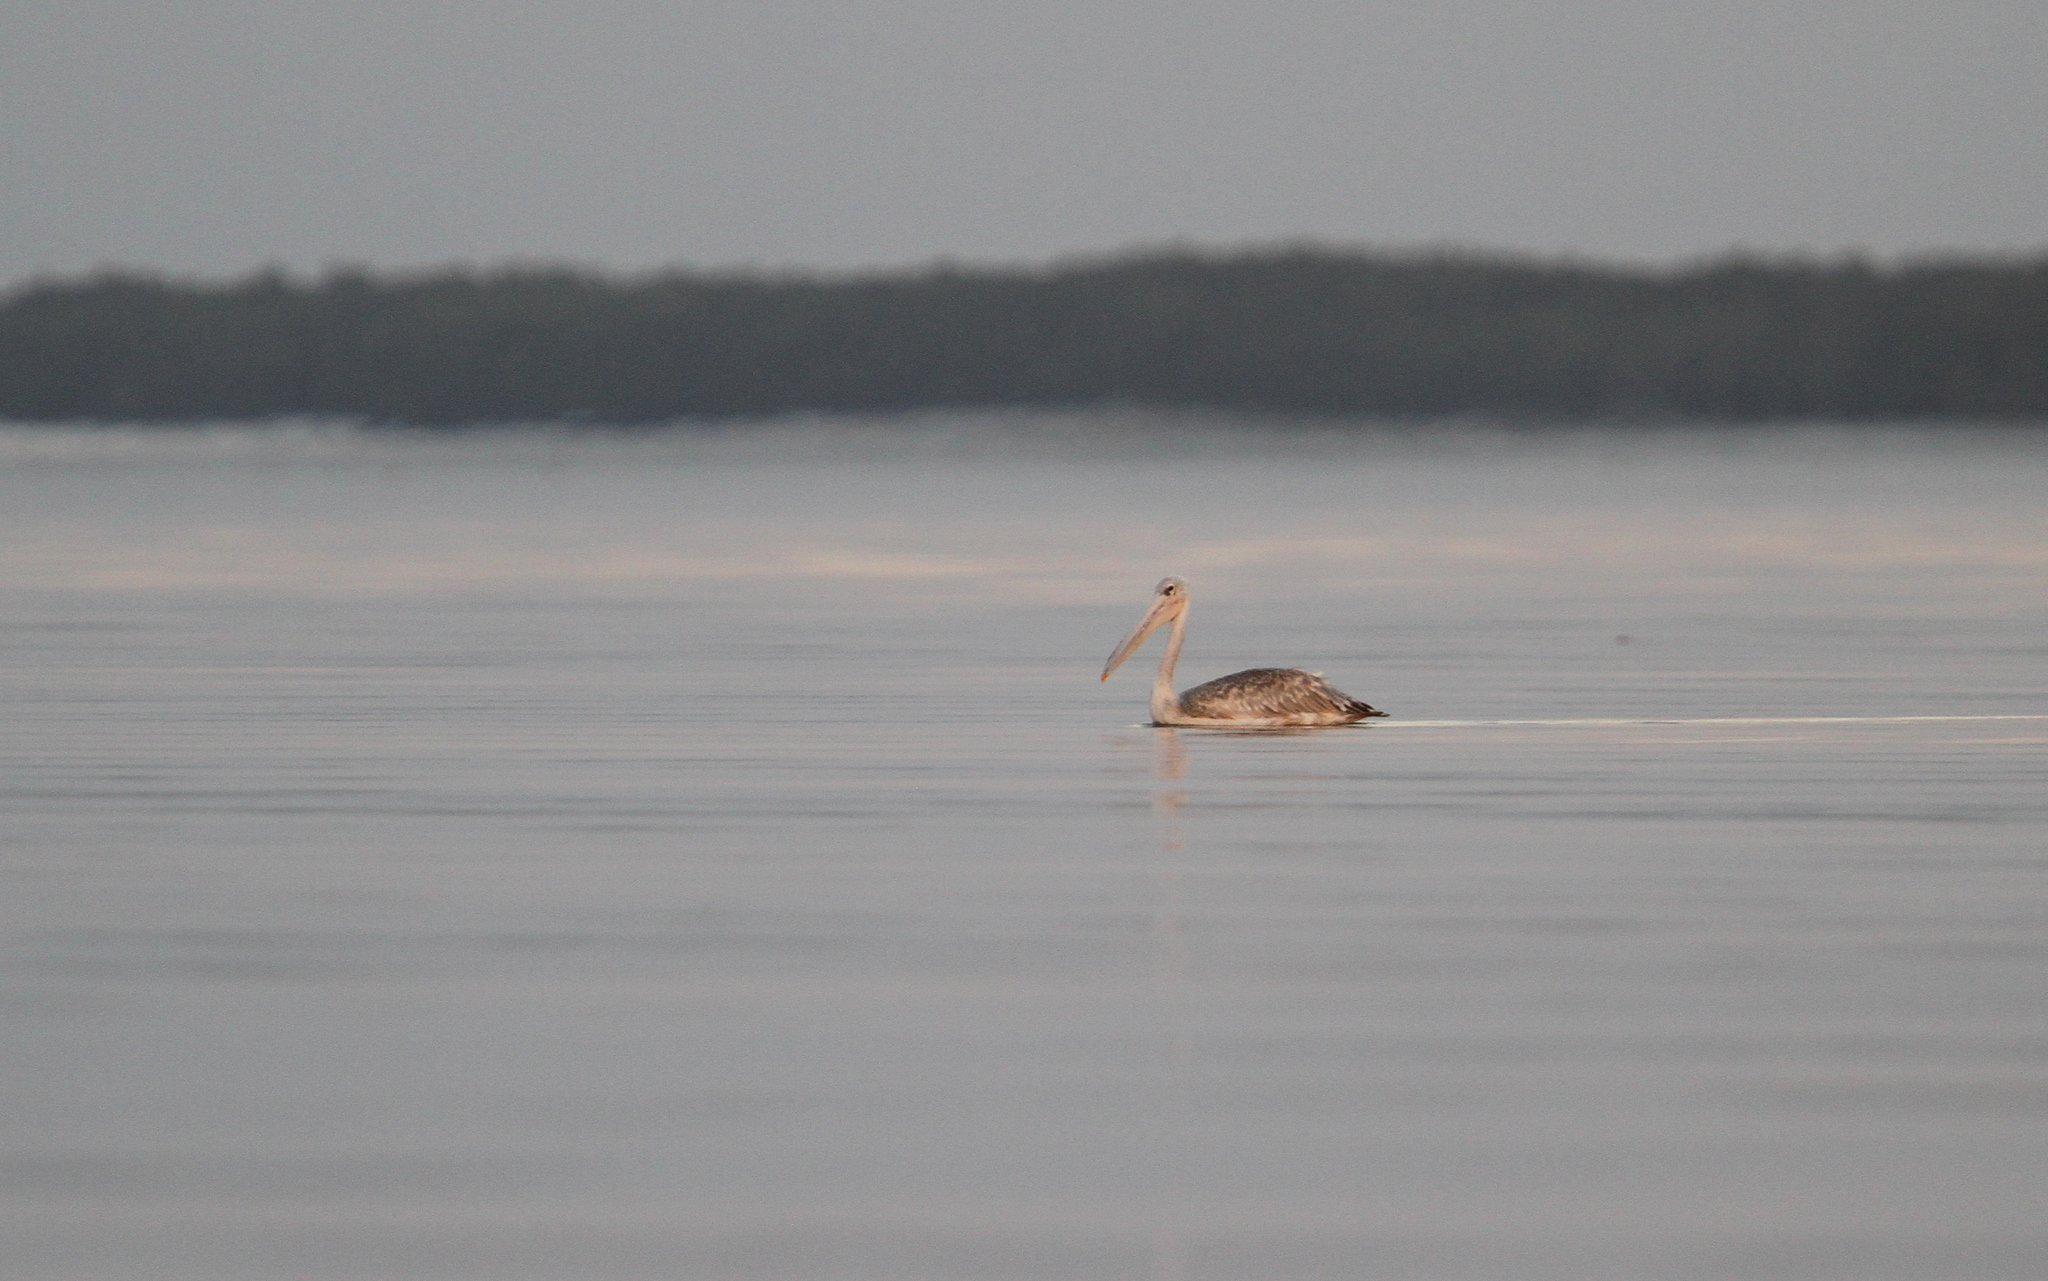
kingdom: Animalia
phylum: Chordata
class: Aves
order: Pelecaniformes
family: Pelecanidae
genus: Pelecanus
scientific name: Pelecanus rufescens
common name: Pink-backed pelican
